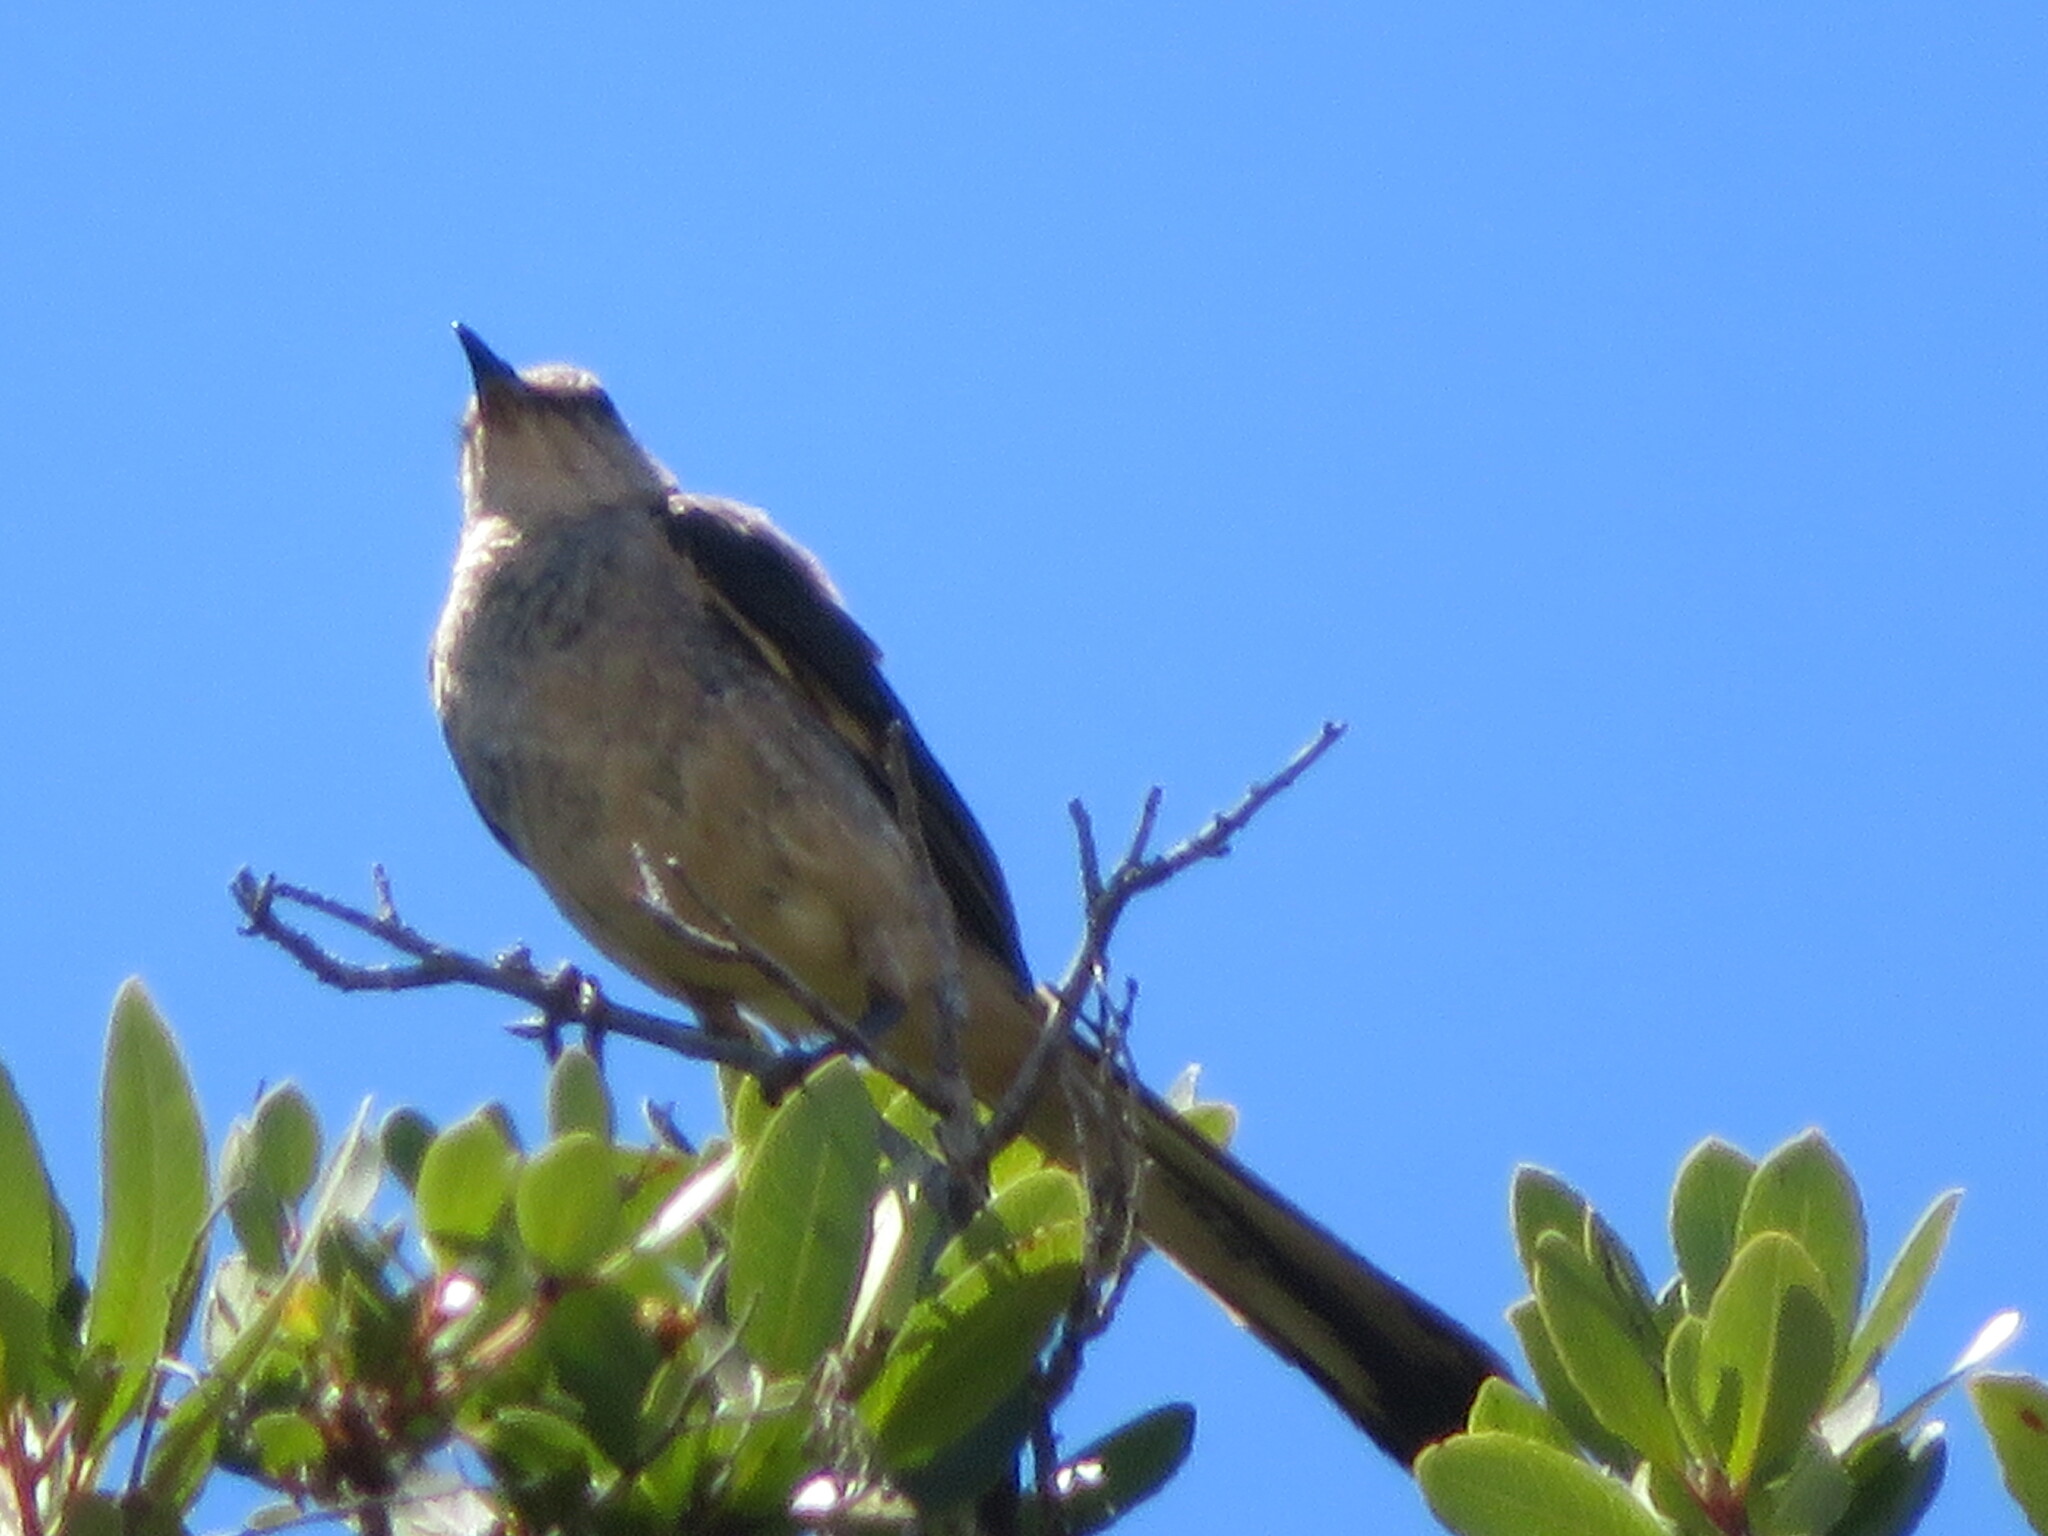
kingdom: Animalia
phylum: Chordata
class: Aves
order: Passeriformes
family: Mimidae
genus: Mimus
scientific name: Mimus polyglottos
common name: Northern mockingbird
